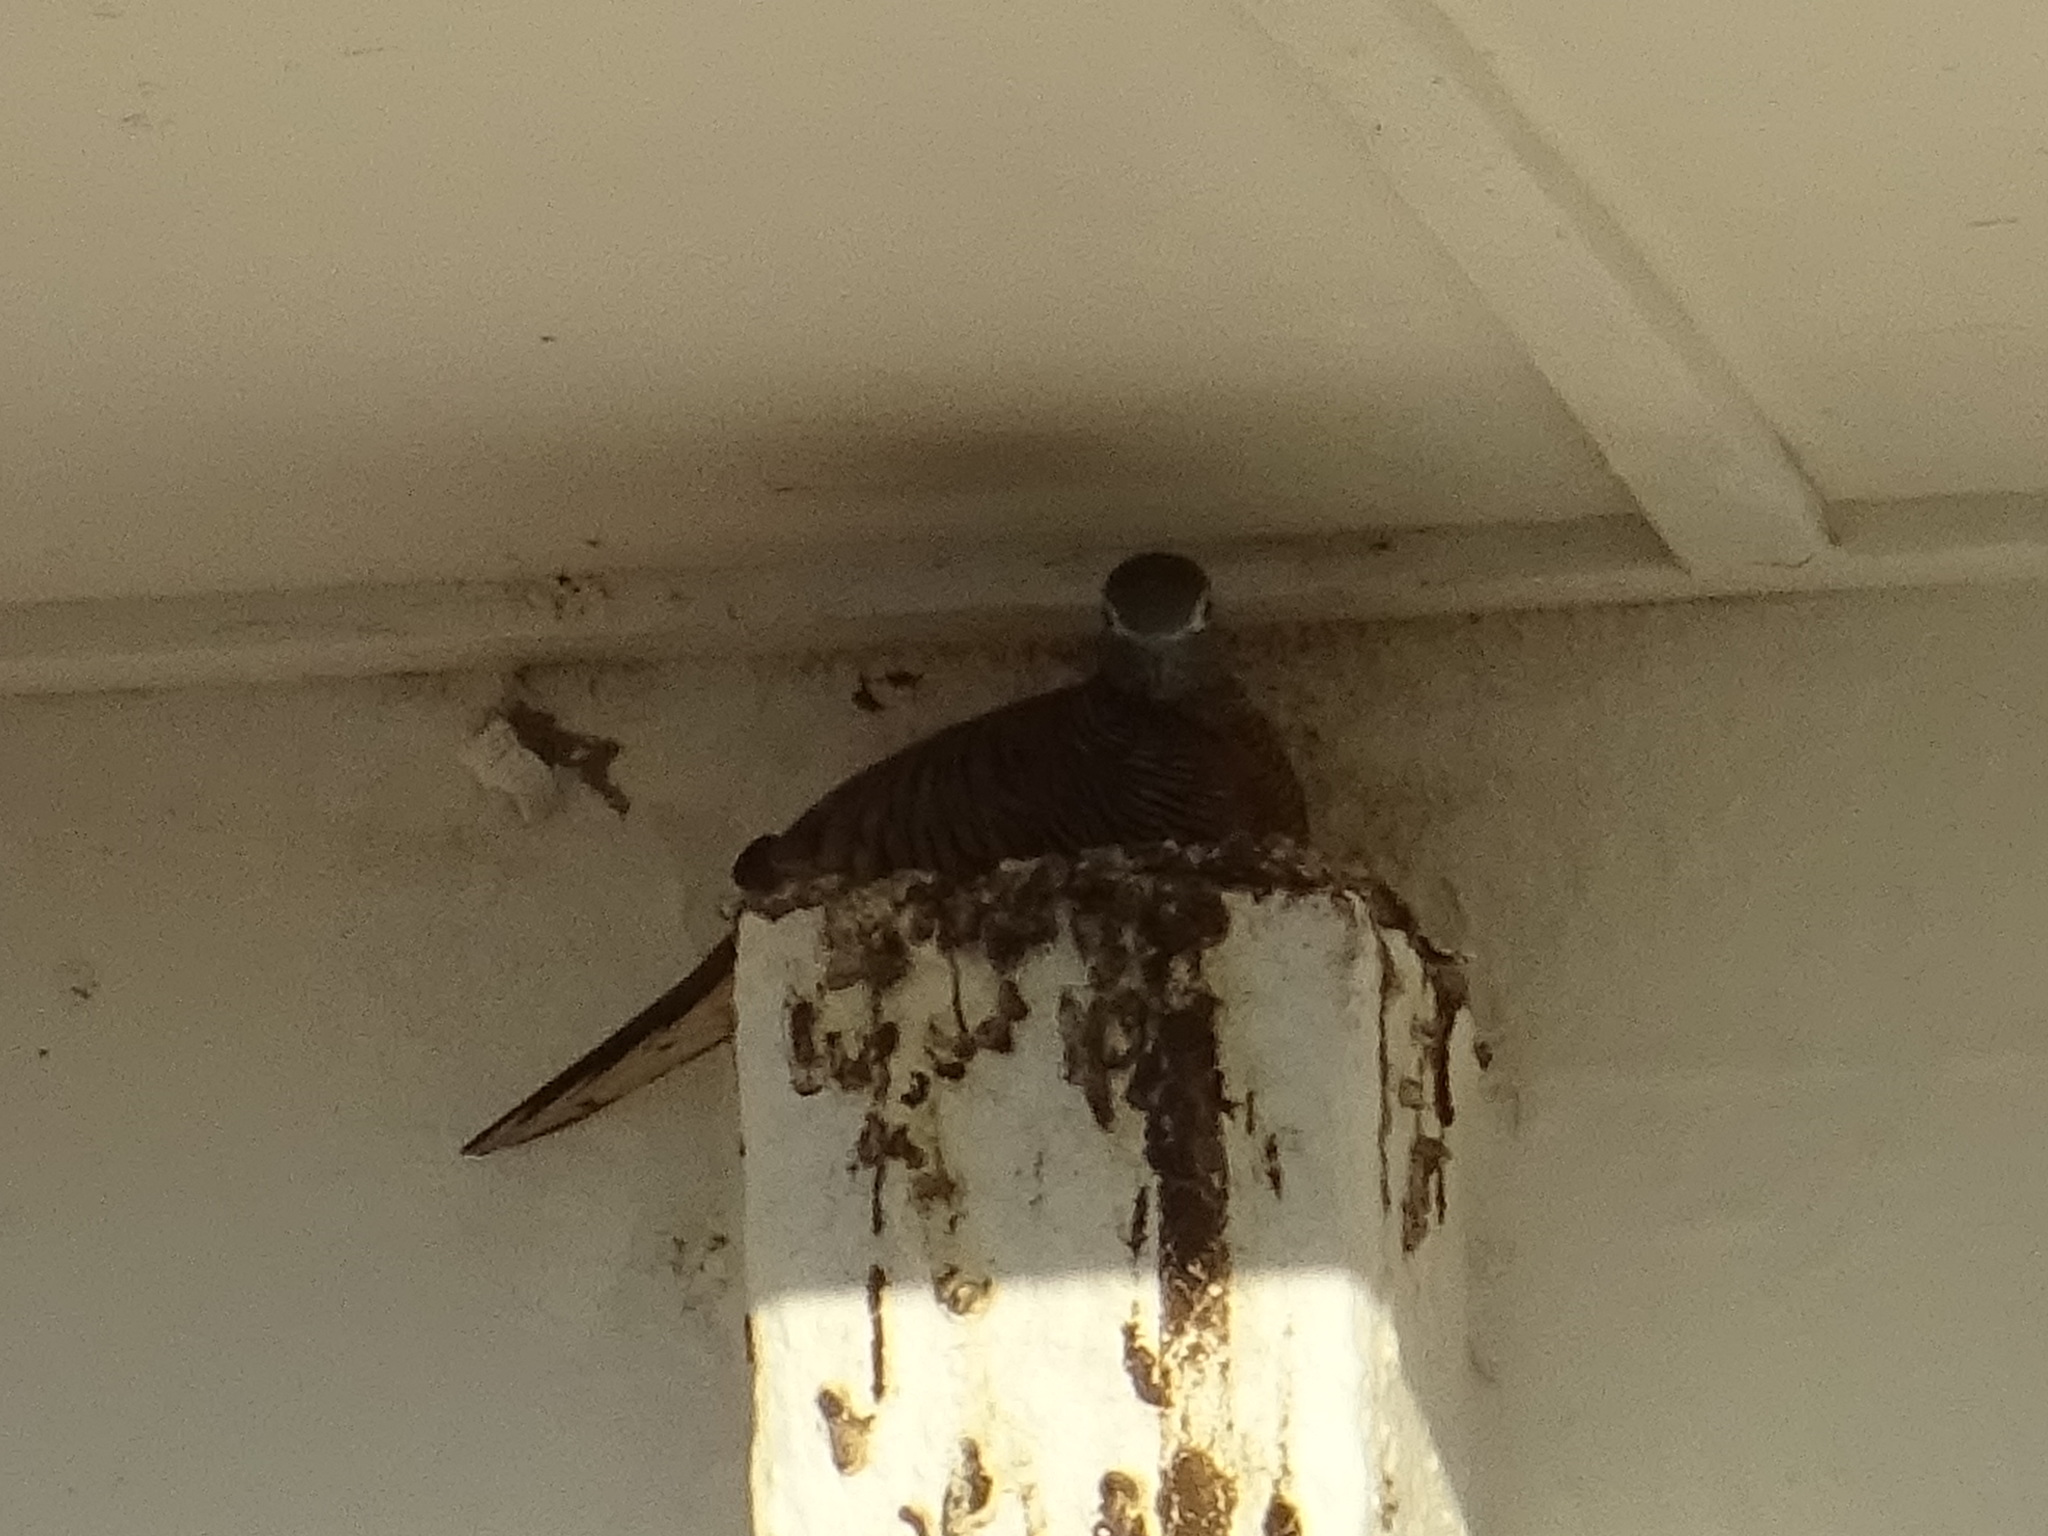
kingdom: Animalia
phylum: Chordata
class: Aves
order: Columbiformes
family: Columbidae
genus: Geopelia
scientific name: Geopelia striata
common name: Zebra dove
